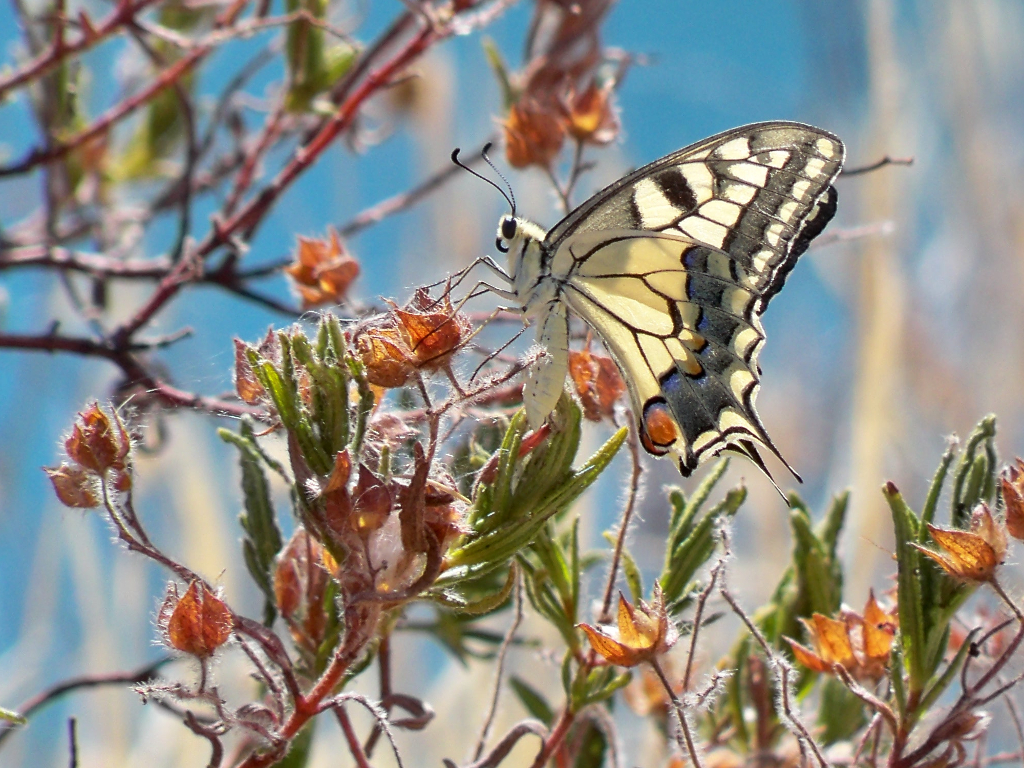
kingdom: Animalia
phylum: Arthropoda
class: Insecta
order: Lepidoptera
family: Papilionidae
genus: Papilio
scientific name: Papilio machaon
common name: Swallowtail
